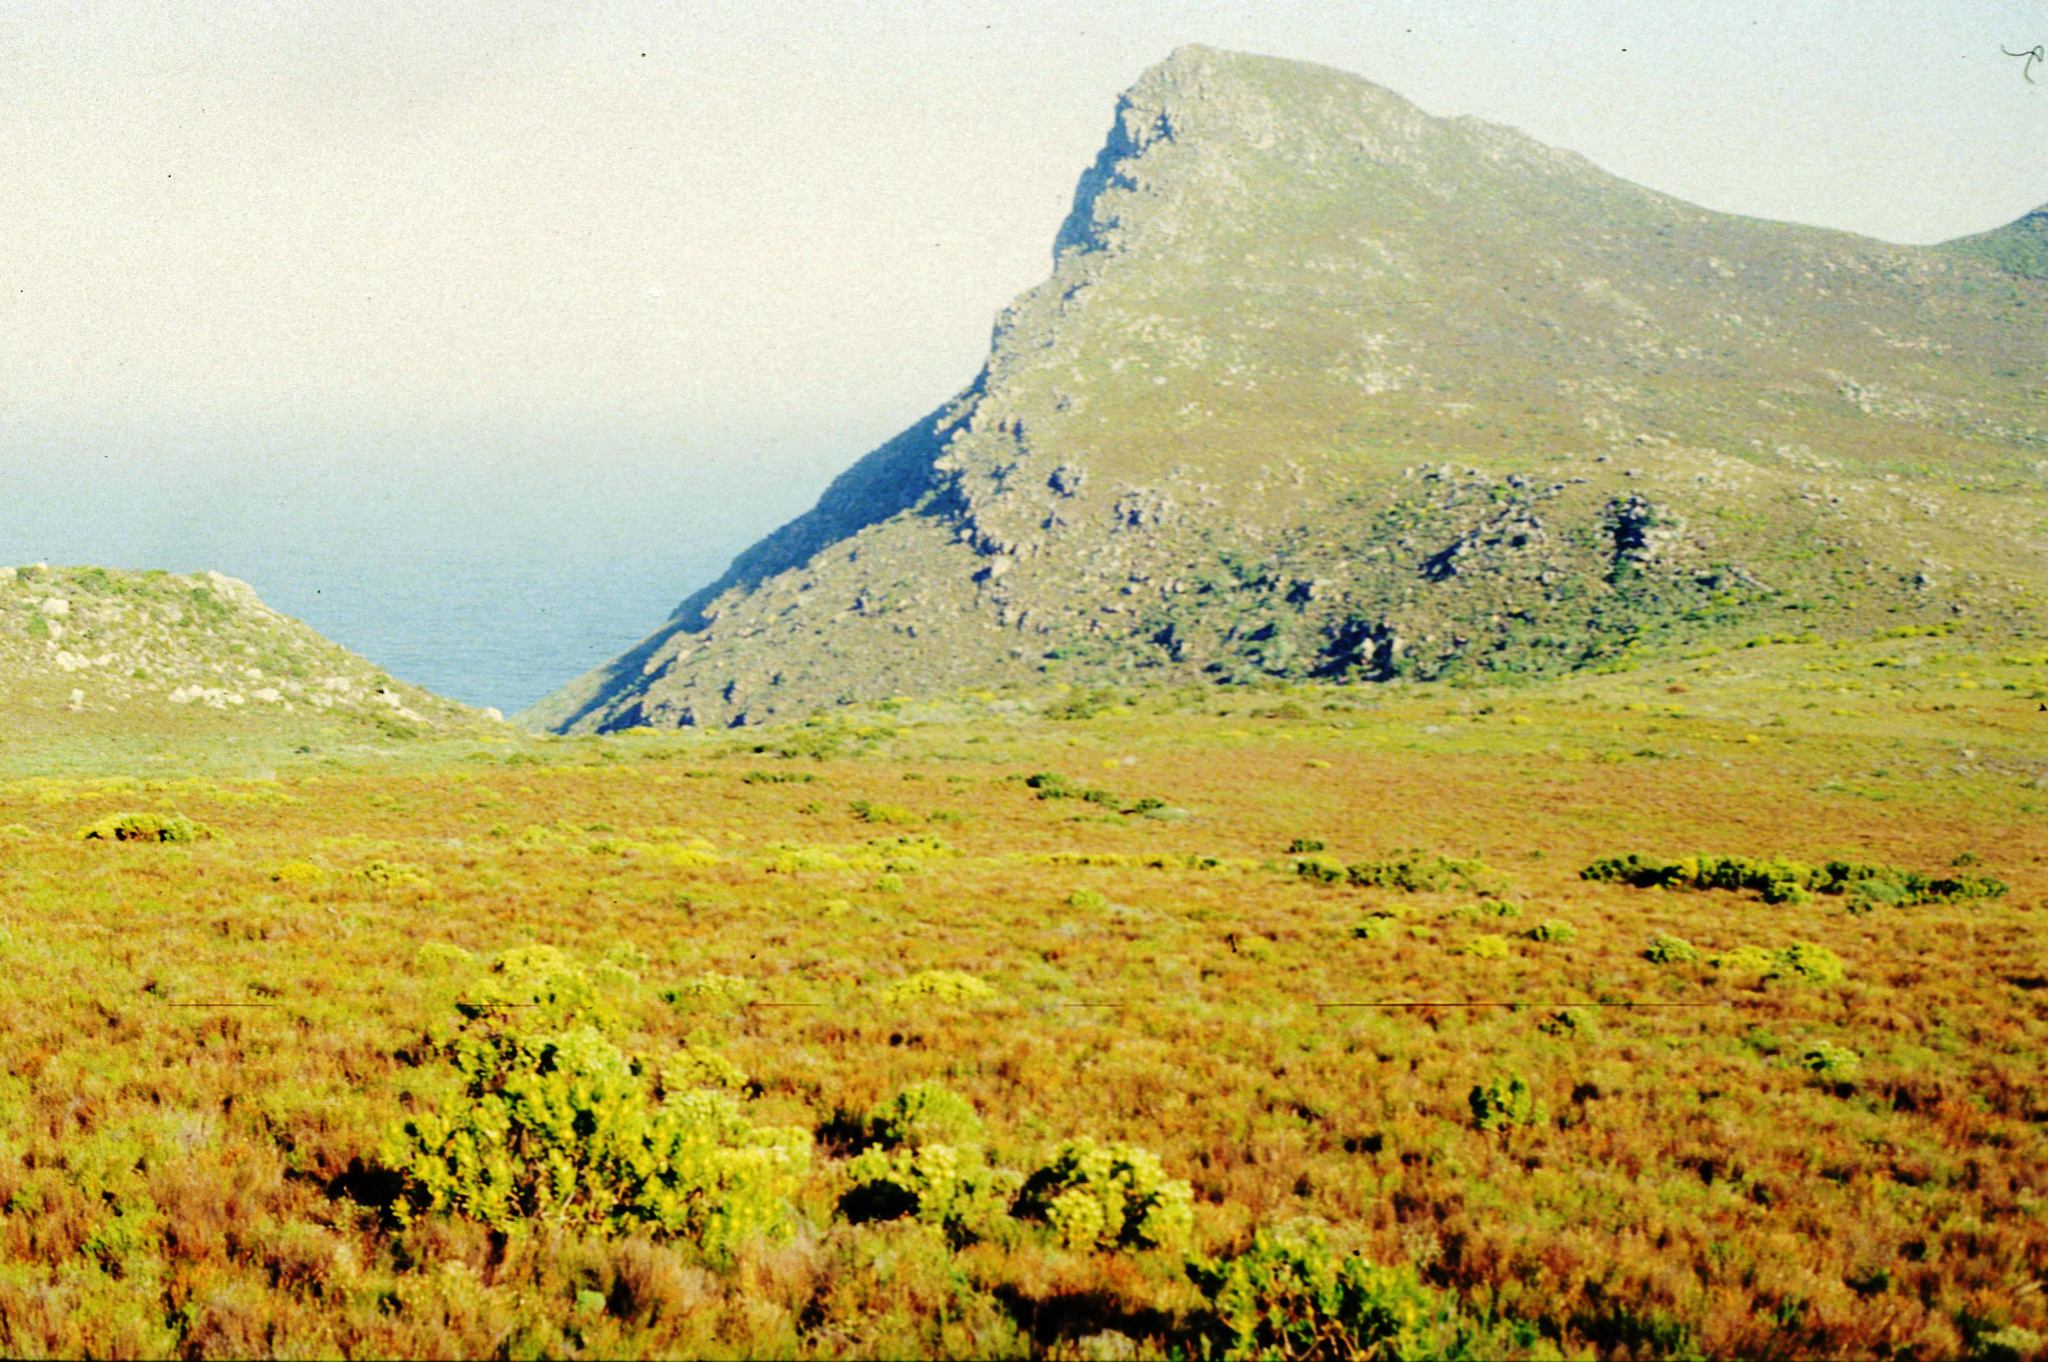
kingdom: Plantae
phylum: Tracheophyta
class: Magnoliopsida
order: Proteales
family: Proteaceae
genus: Leucadendron
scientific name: Leucadendron laureolum
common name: Golden sunshinebush
